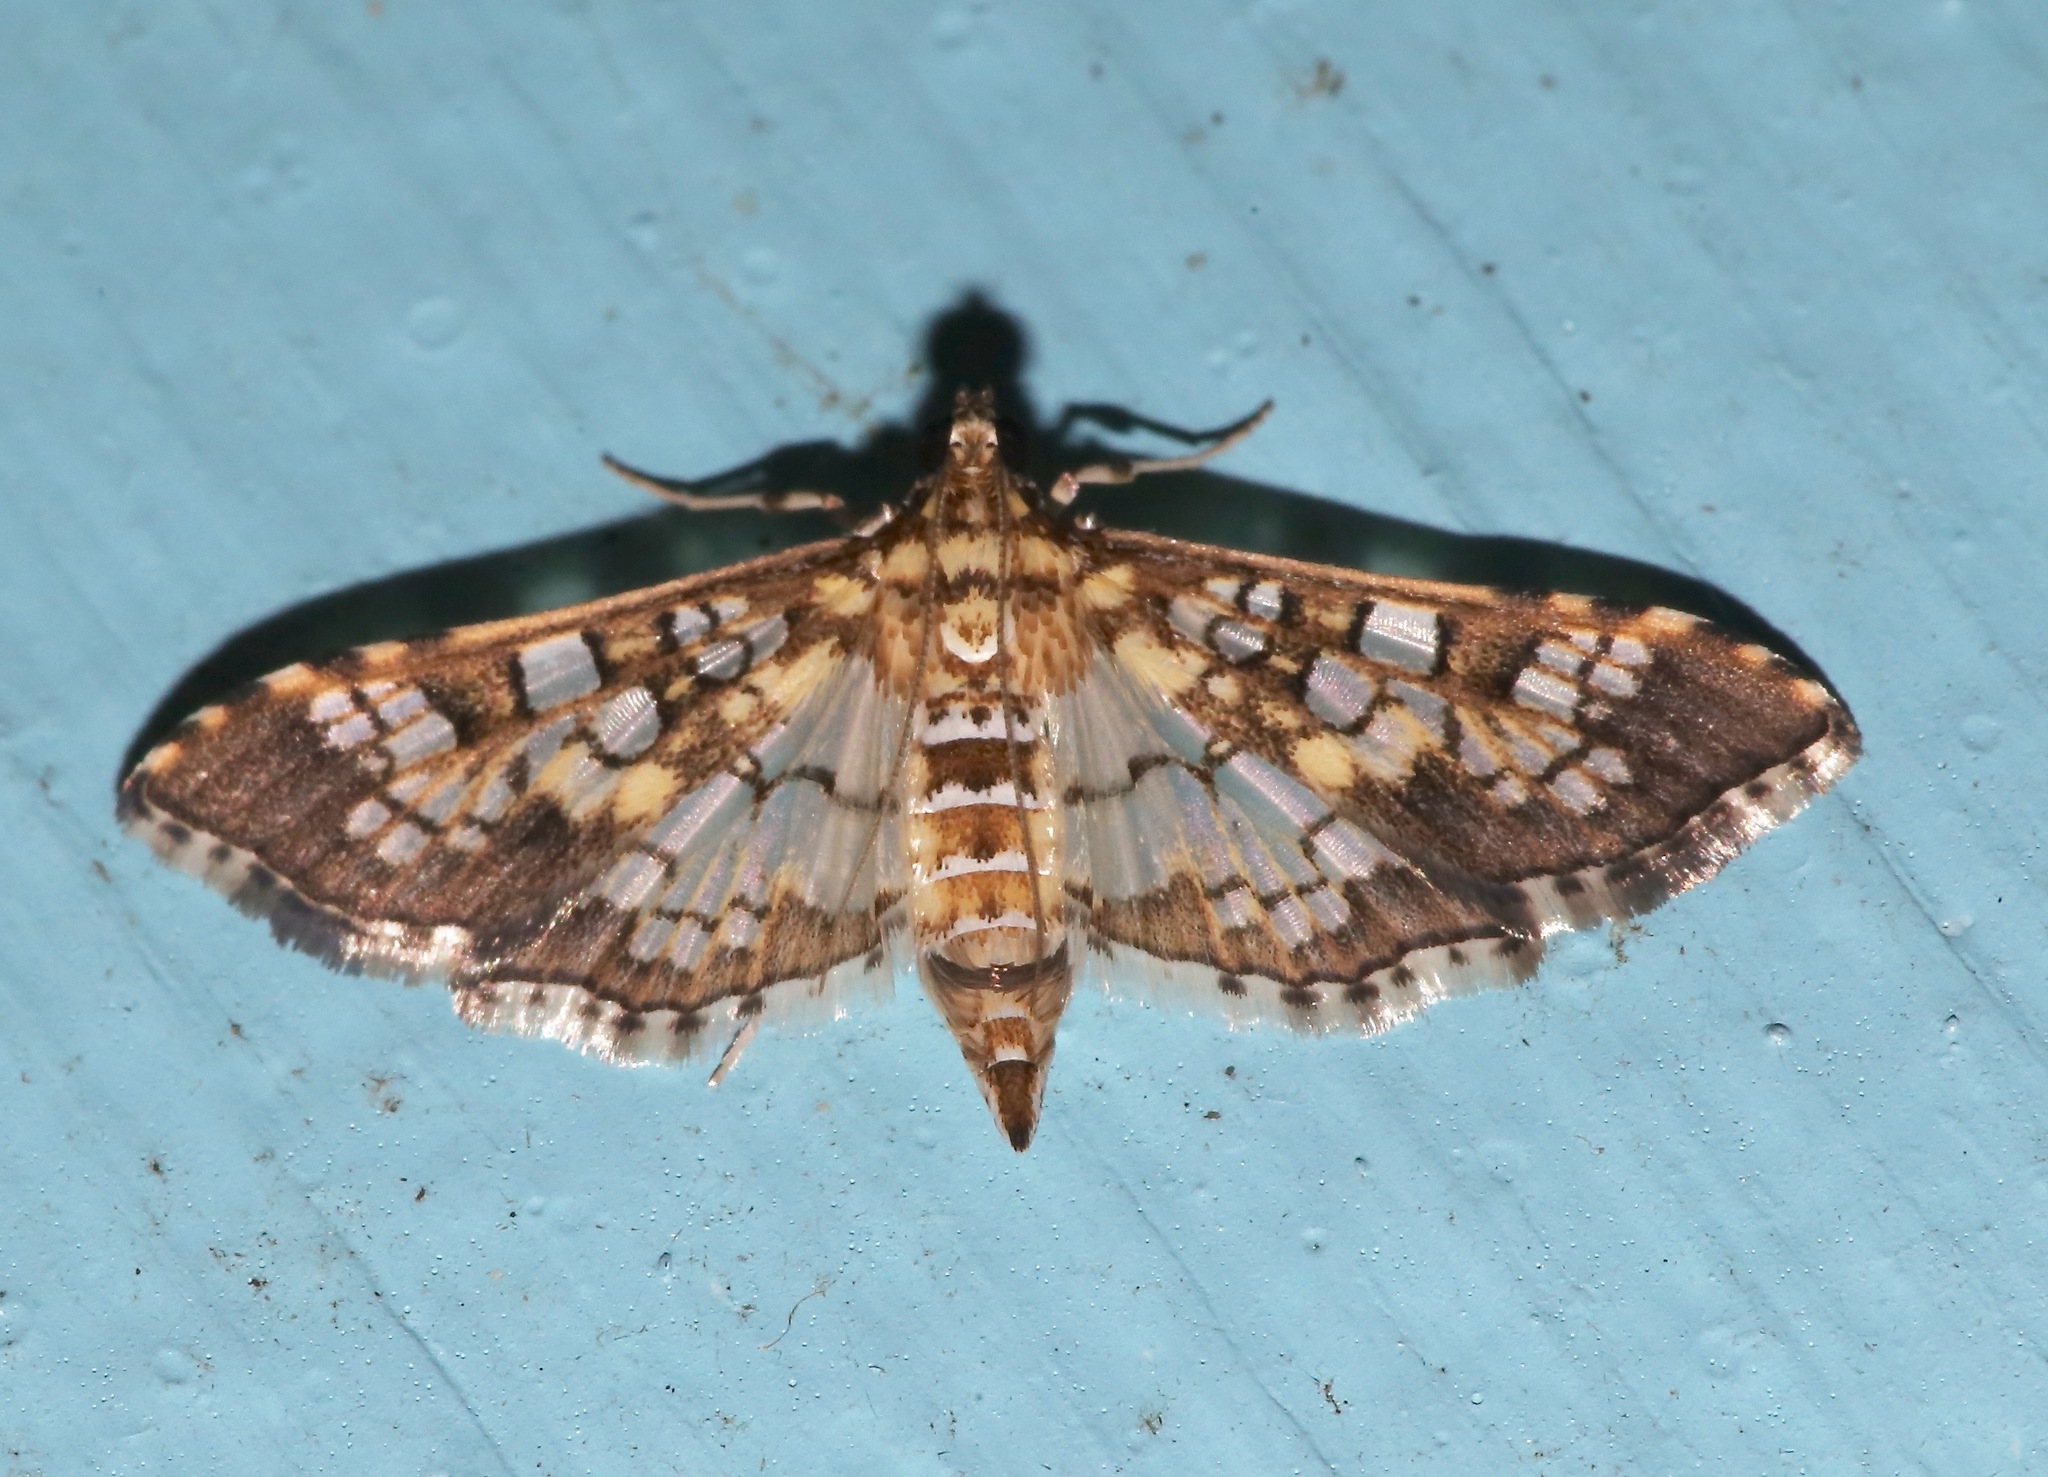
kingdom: Animalia
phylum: Arthropoda
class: Insecta
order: Lepidoptera
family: Crambidae
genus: Samea
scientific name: Samea ecclesialis
